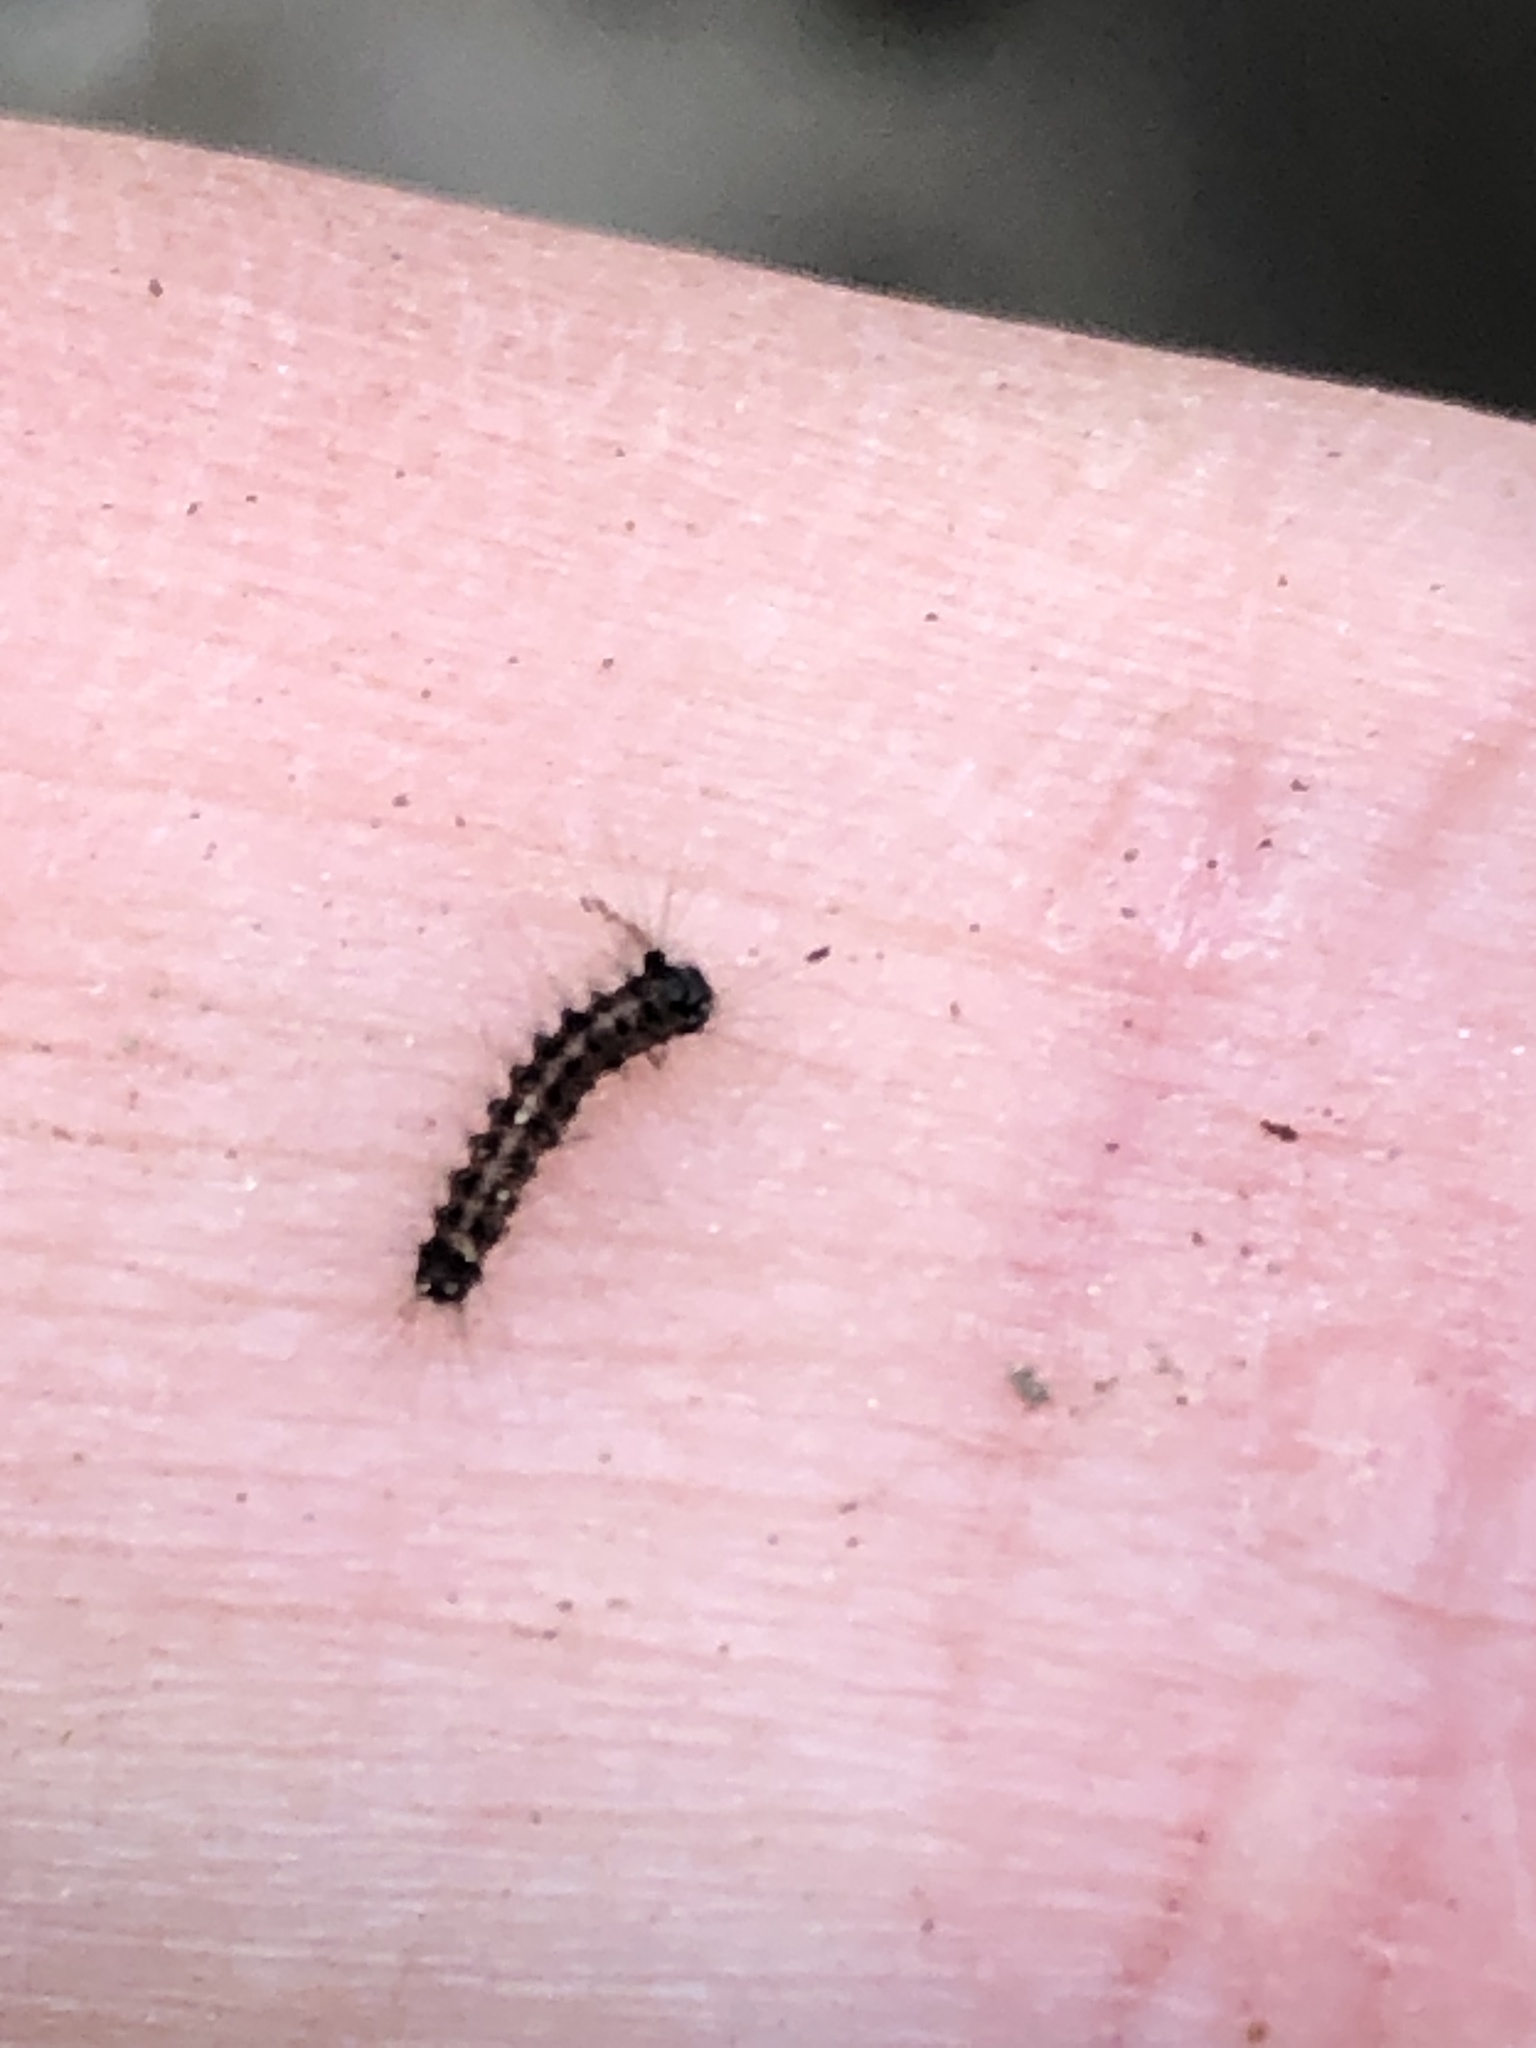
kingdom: Animalia
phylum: Arthropoda
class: Insecta
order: Lepidoptera
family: Erebidae
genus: Lymantria
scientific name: Lymantria dispar
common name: Gypsy moth
